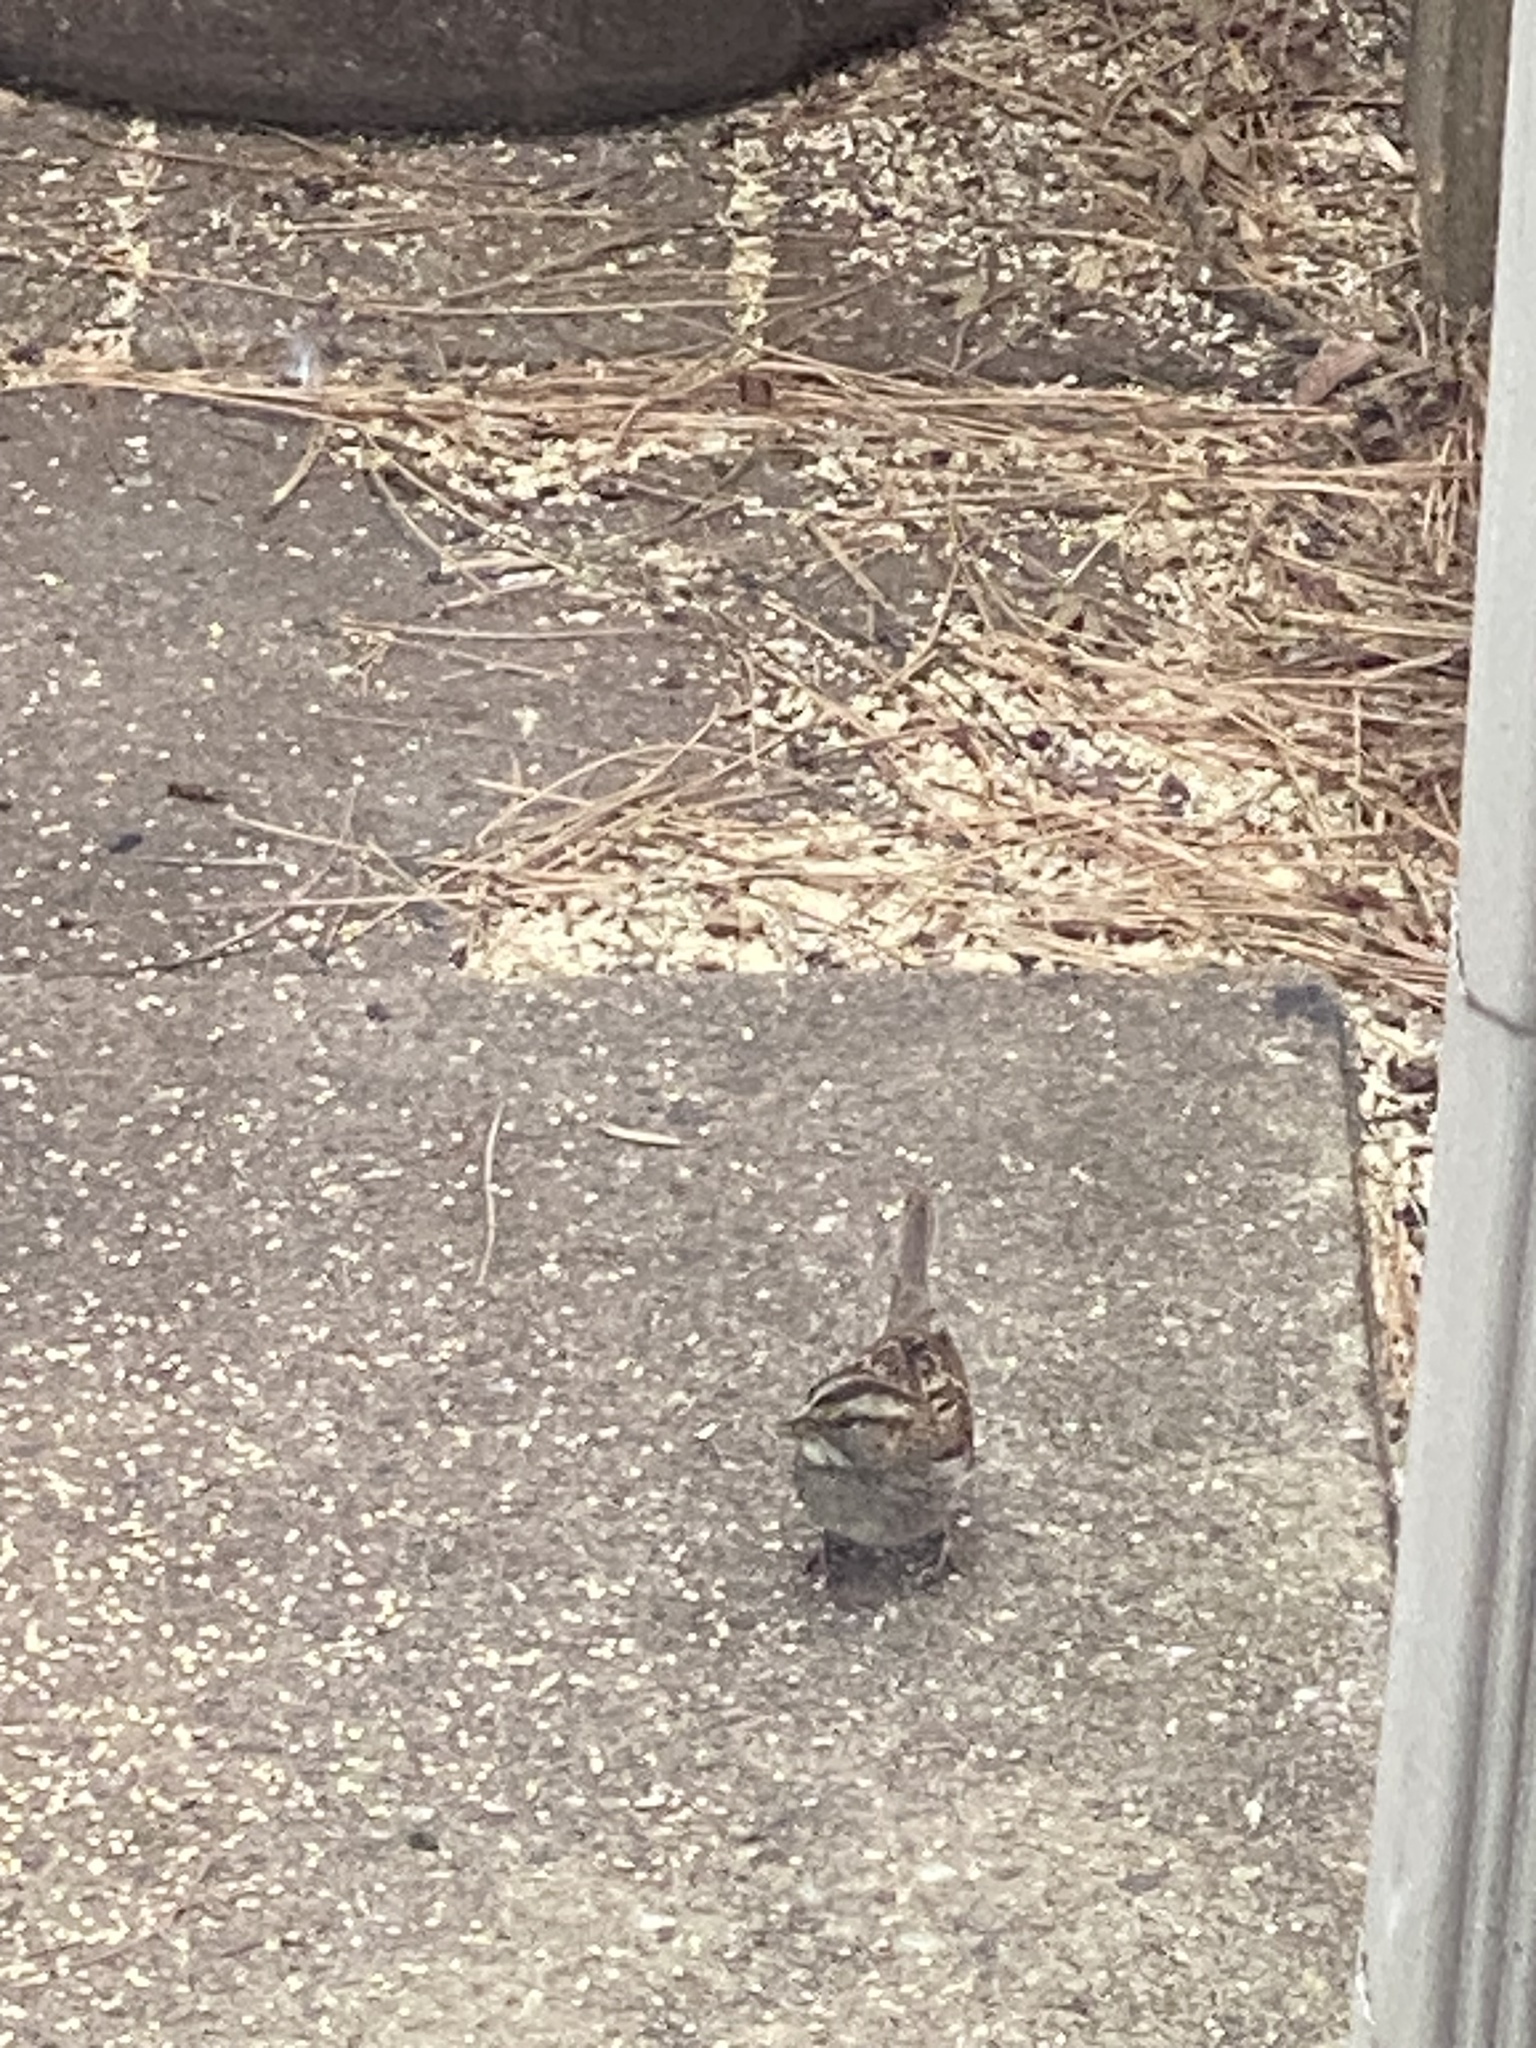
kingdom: Animalia
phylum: Chordata
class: Aves
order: Passeriformes
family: Passerellidae
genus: Zonotrichia
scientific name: Zonotrichia albicollis
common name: White-throated sparrow
